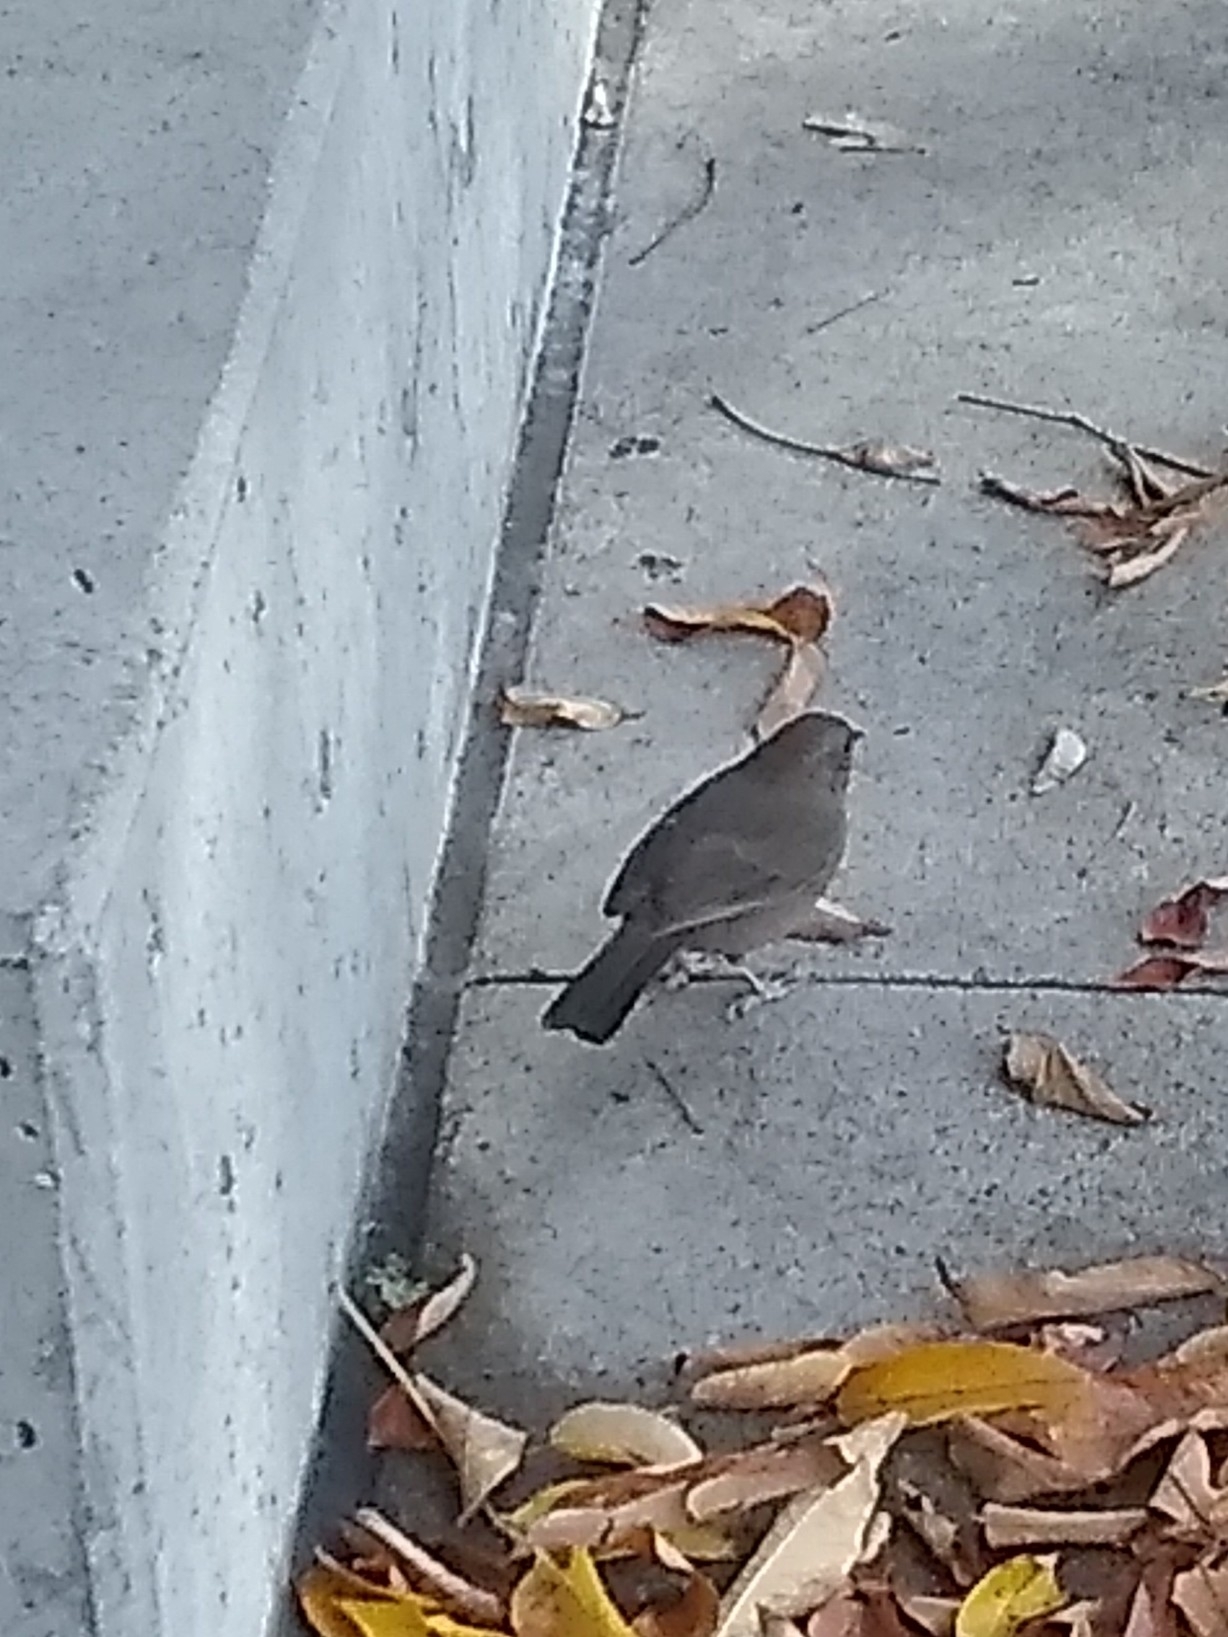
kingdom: Animalia
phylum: Chordata
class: Aves
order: Passeriformes
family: Passerellidae
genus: Melozone
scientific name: Melozone crissalis
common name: California towhee
